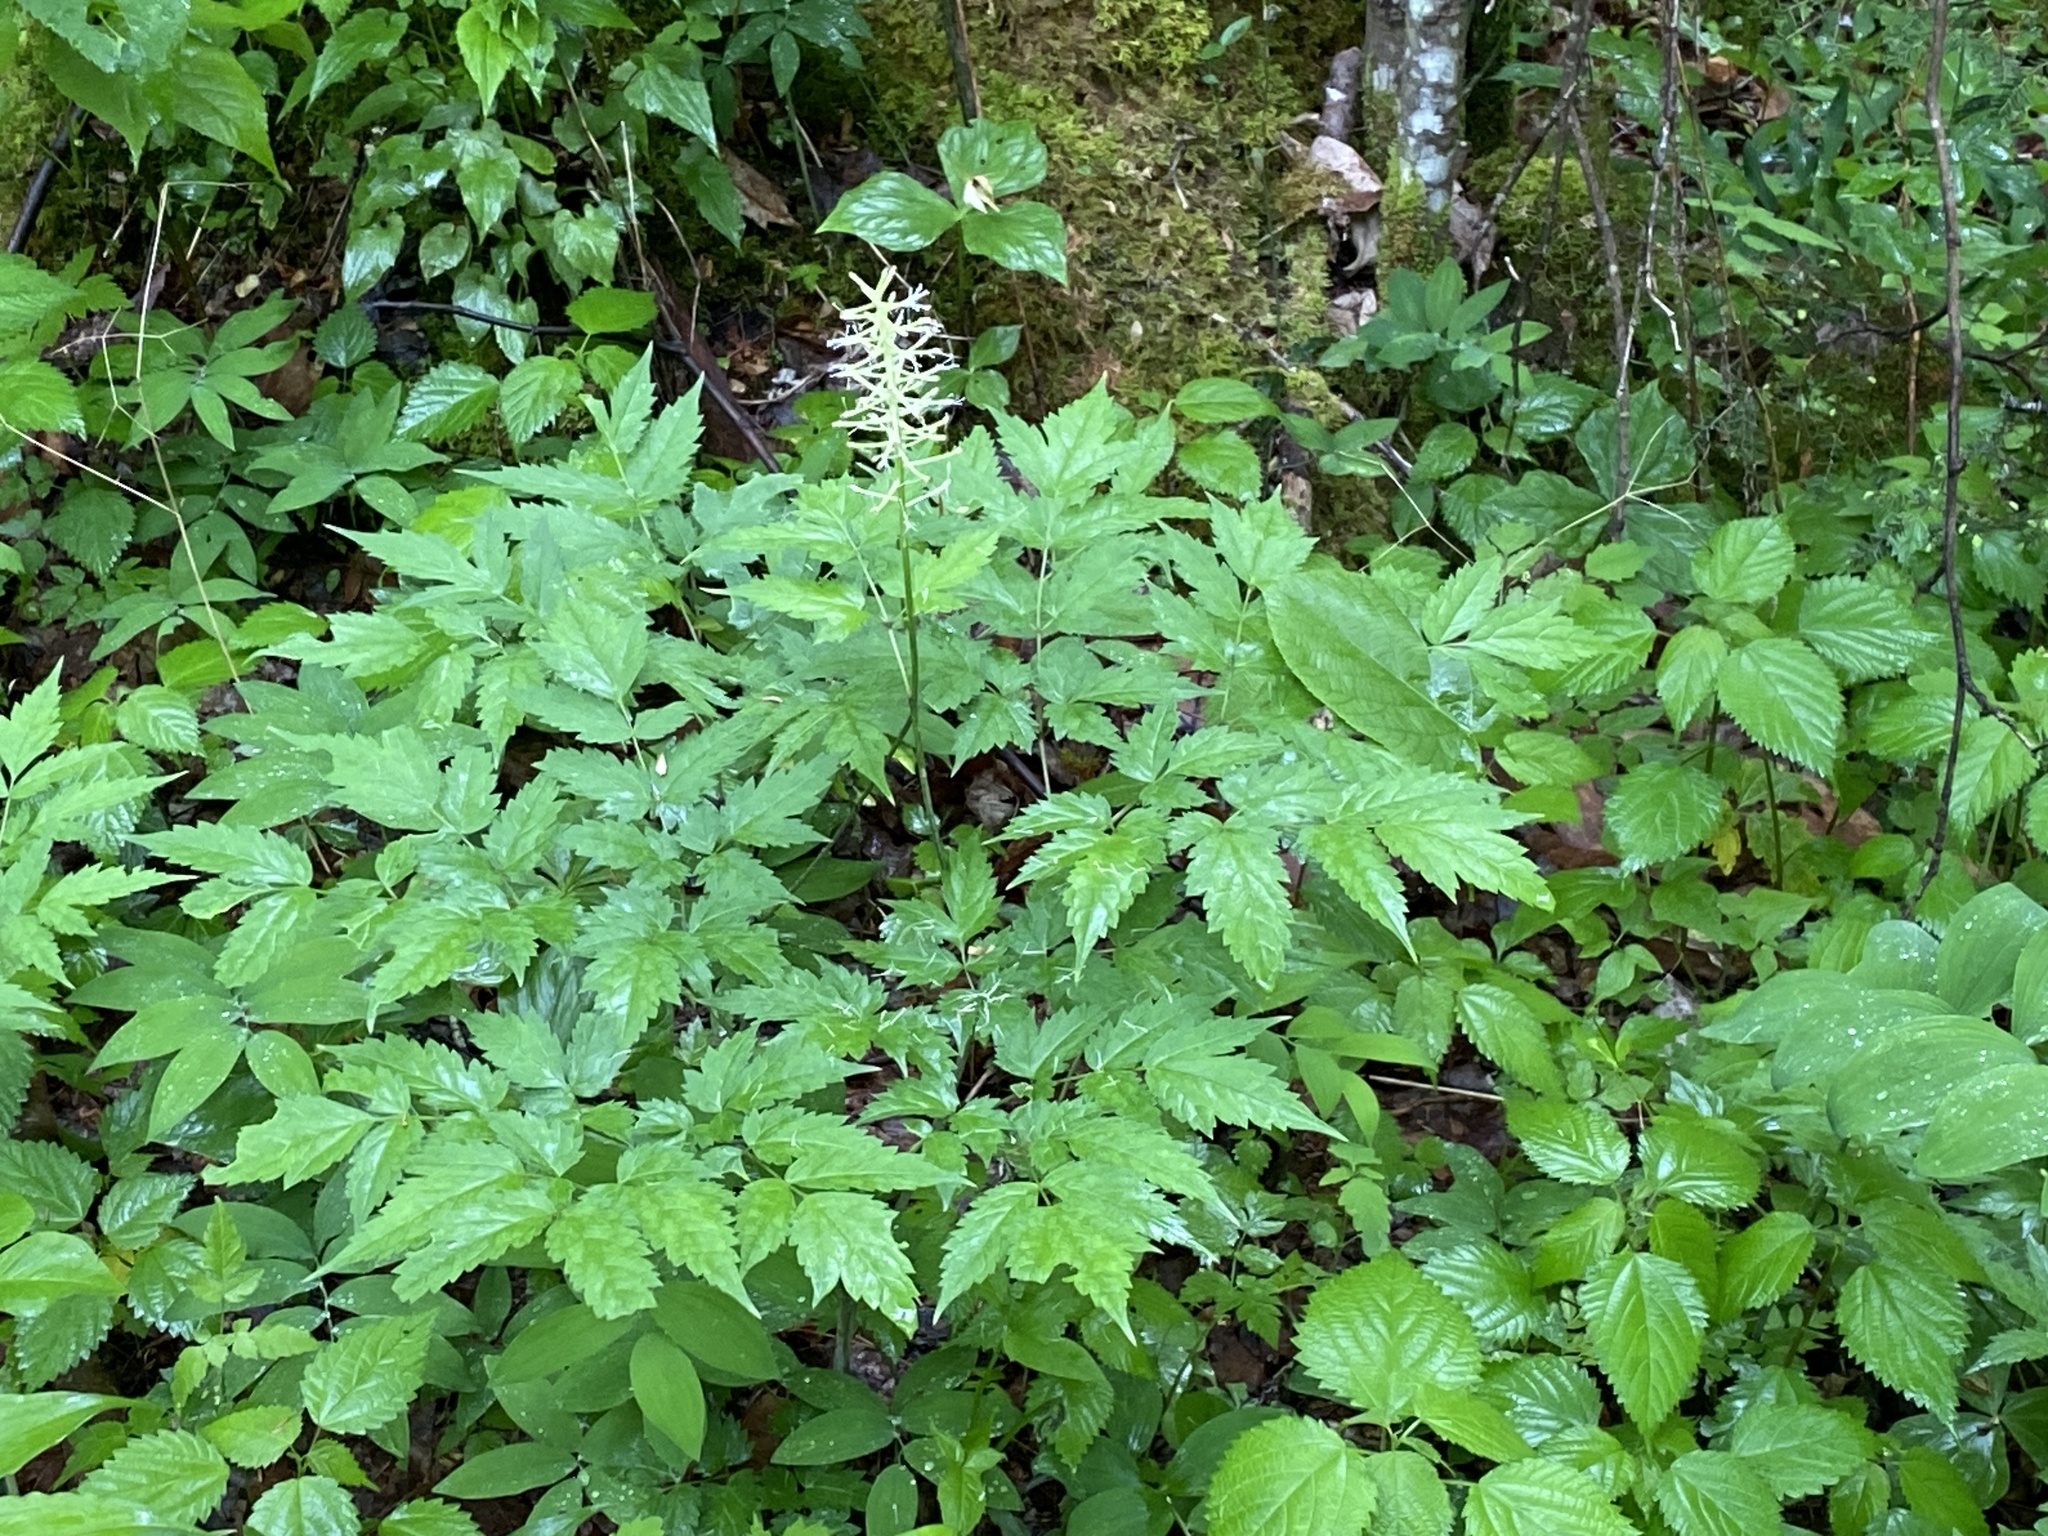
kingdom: Plantae
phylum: Tracheophyta
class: Magnoliopsida
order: Ranunculales
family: Ranunculaceae
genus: Actaea
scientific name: Actaea pachypoda
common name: Doll's-eyes
